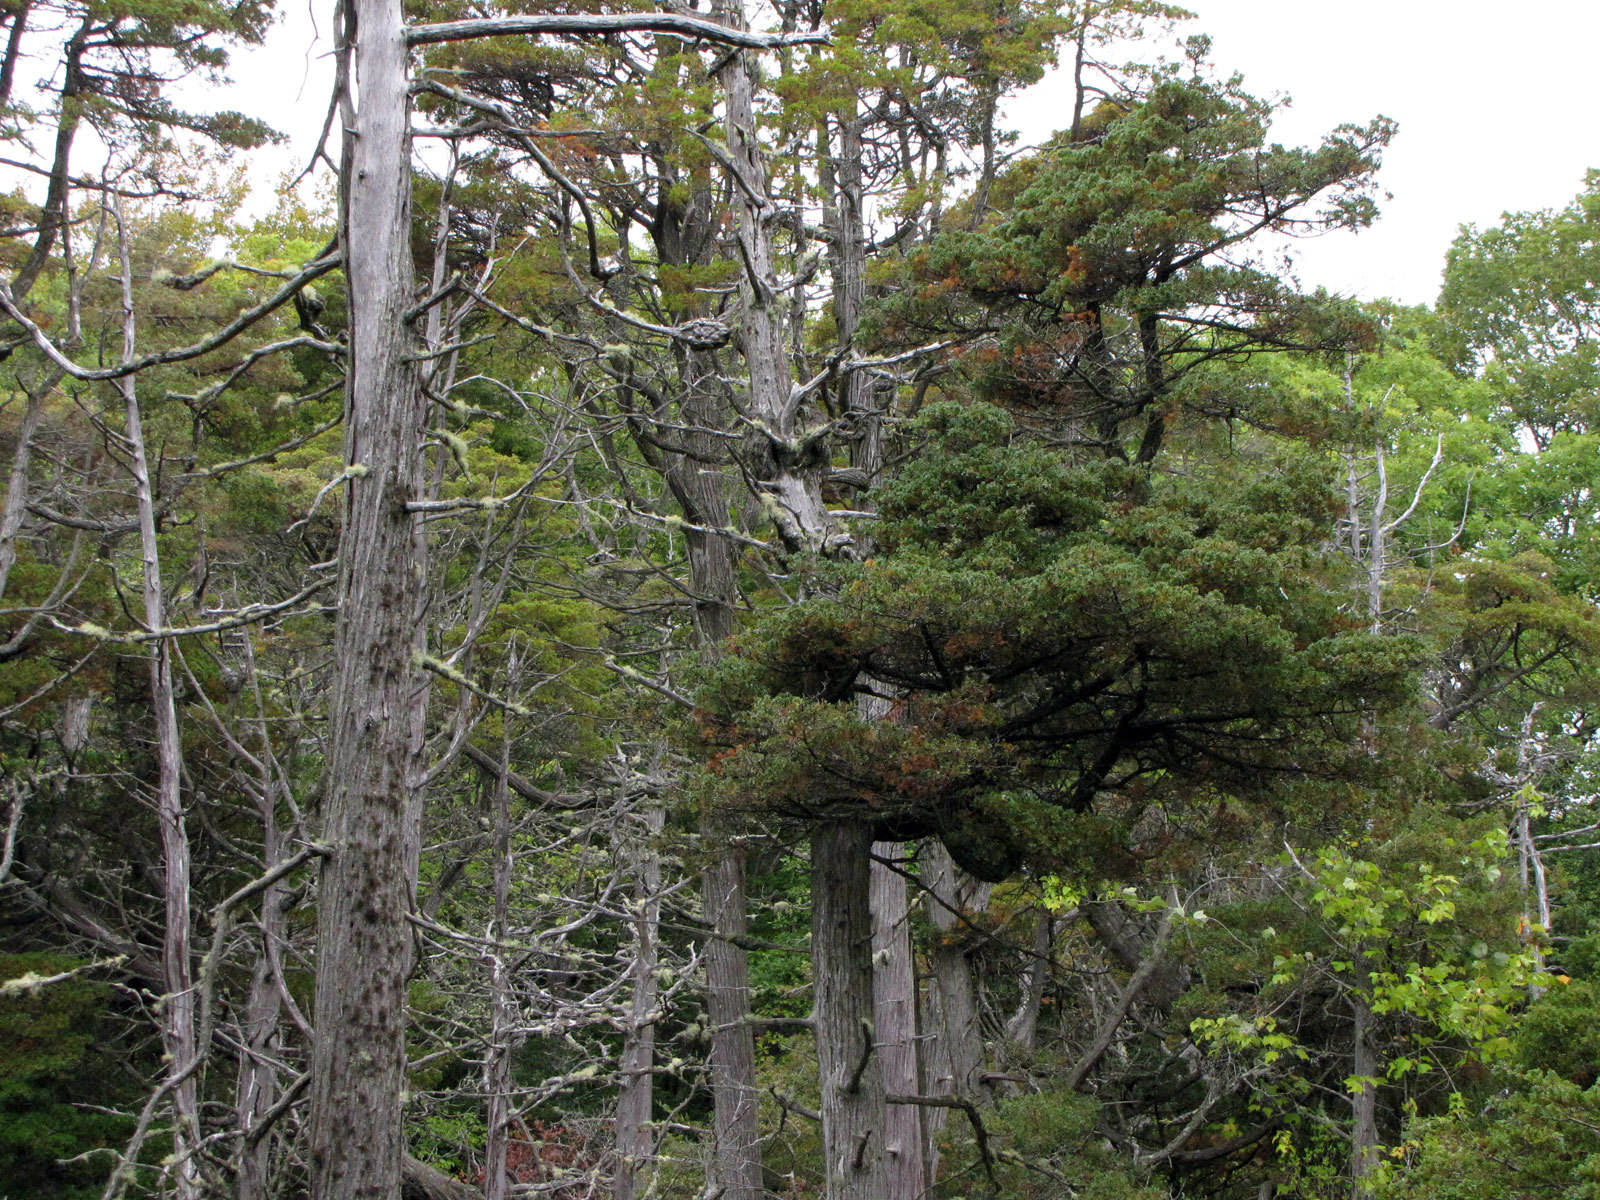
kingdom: Plantae
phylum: Tracheophyta
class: Pinopsida
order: Pinales
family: Cupressaceae
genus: Chamaecyparis
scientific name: Chamaecyparis thyoides
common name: Atlantic white cedar
